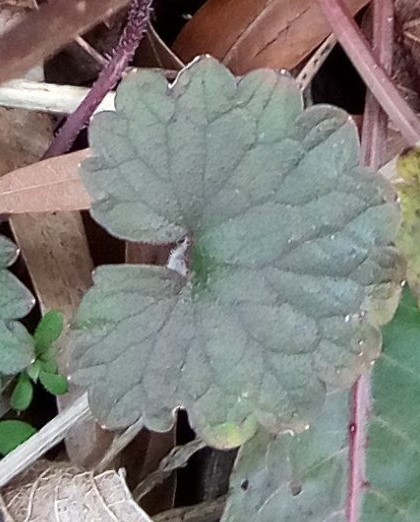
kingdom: Plantae
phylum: Tracheophyta
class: Magnoliopsida
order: Lamiales
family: Lamiaceae
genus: Glechoma
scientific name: Glechoma hederacea
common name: Ground ivy
